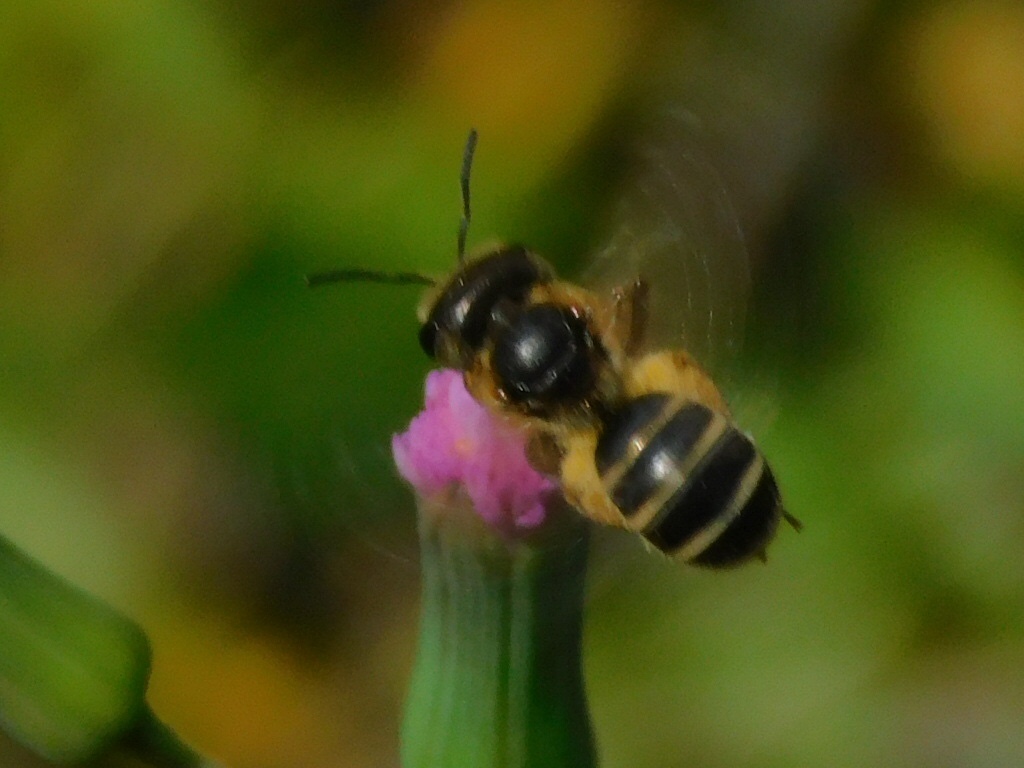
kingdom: Animalia
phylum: Arthropoda
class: Insecta
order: Hymenoptera
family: Halictidae
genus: Halictus
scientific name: Halictus poeyi
